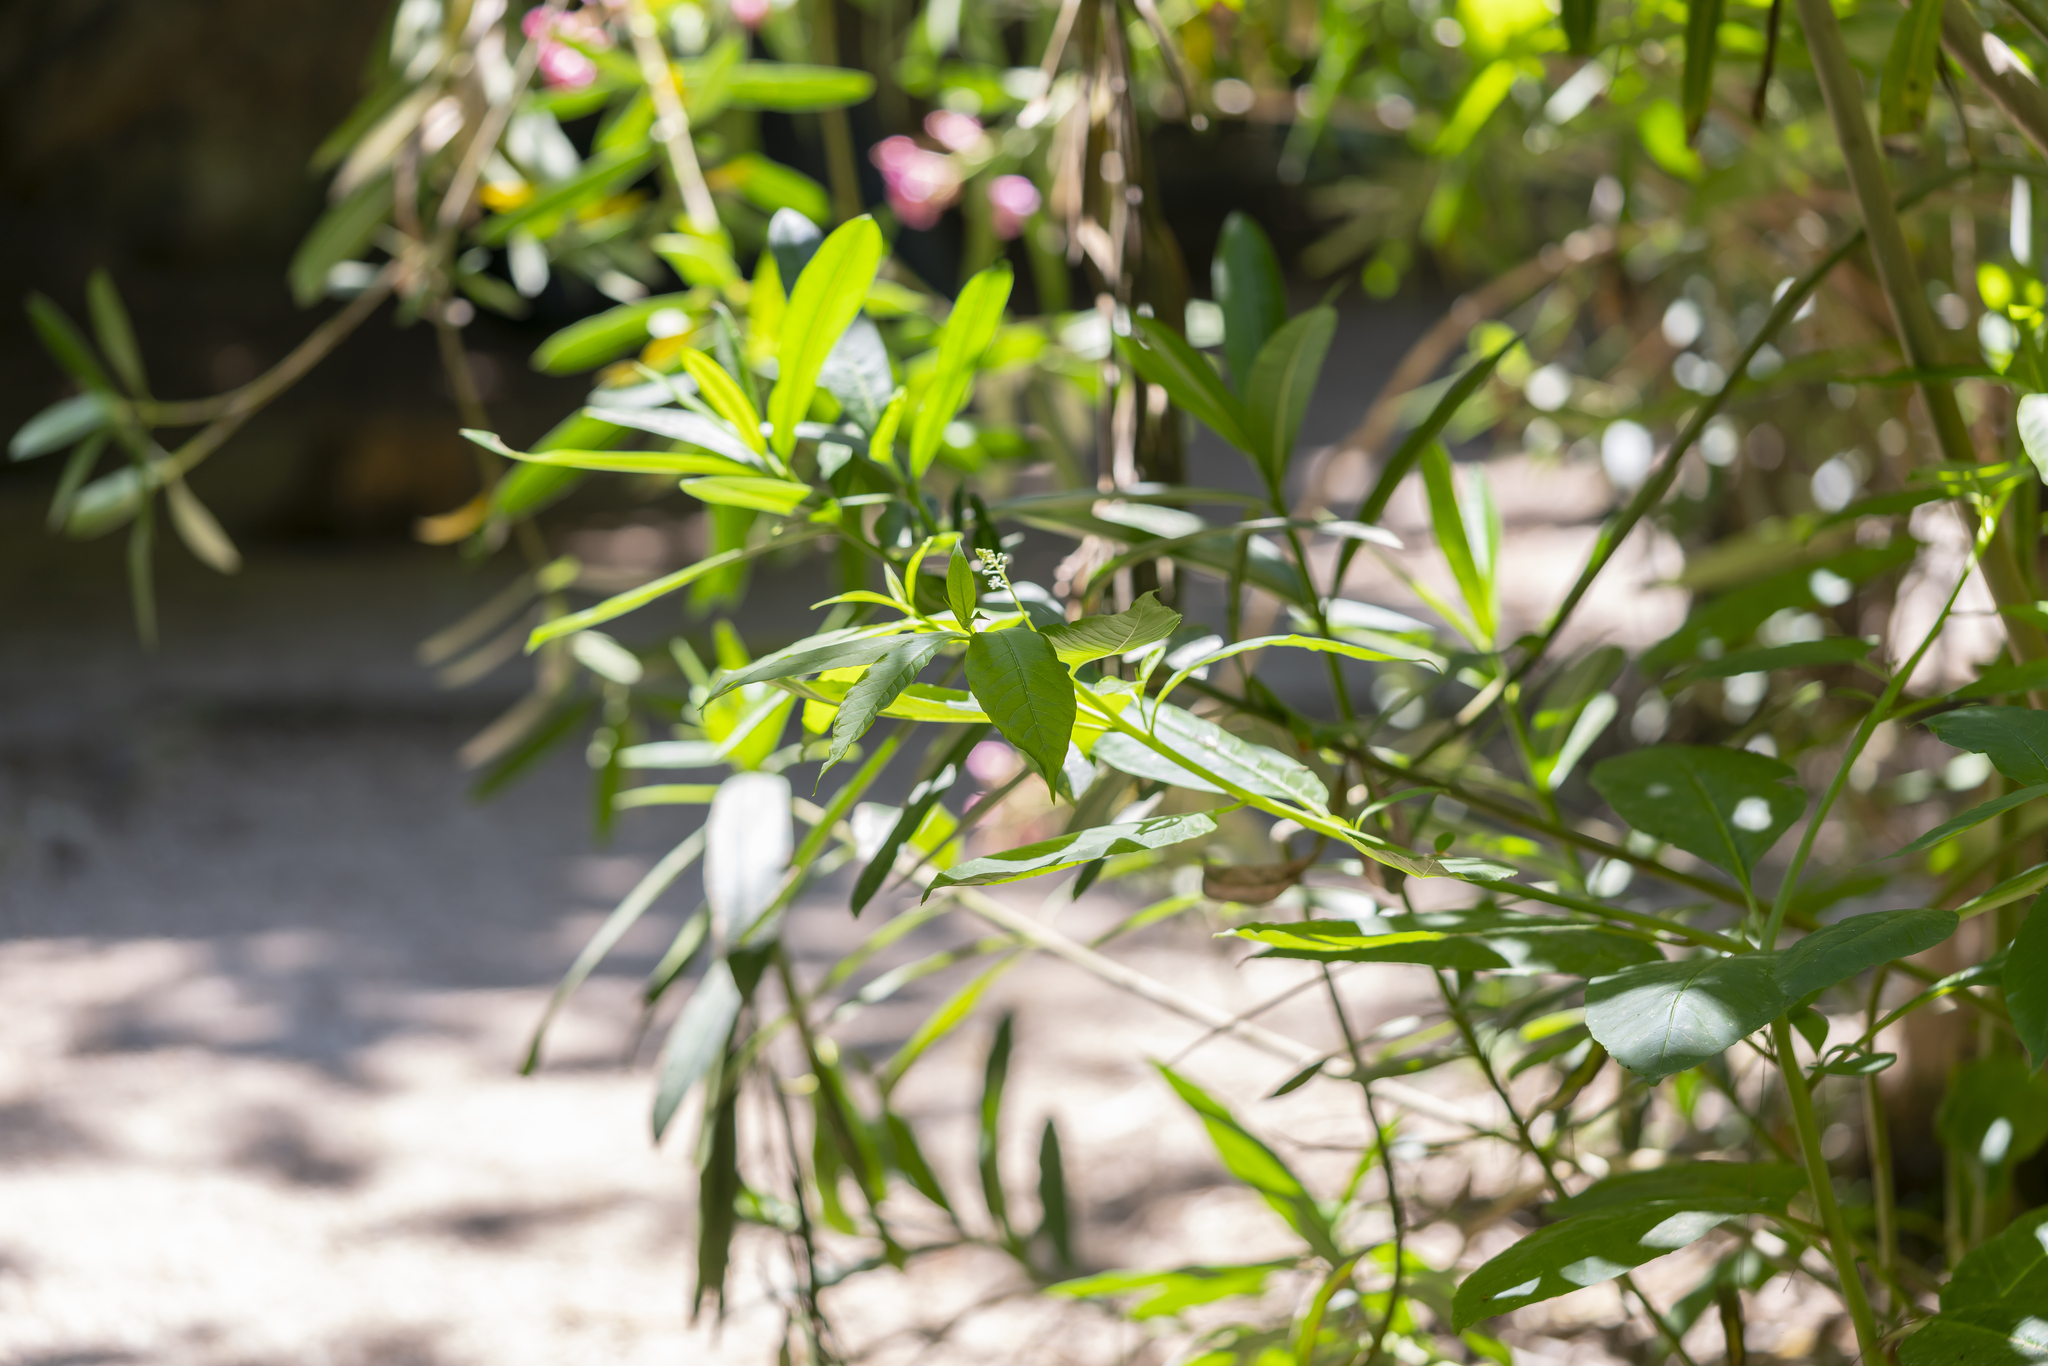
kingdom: Plantae
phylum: Tracheophyta
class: Magnoliopsida
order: Caryophyllales
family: Phytolaccaceae
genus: Phytolacca
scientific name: Phytolacca americana
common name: American pokeweed
